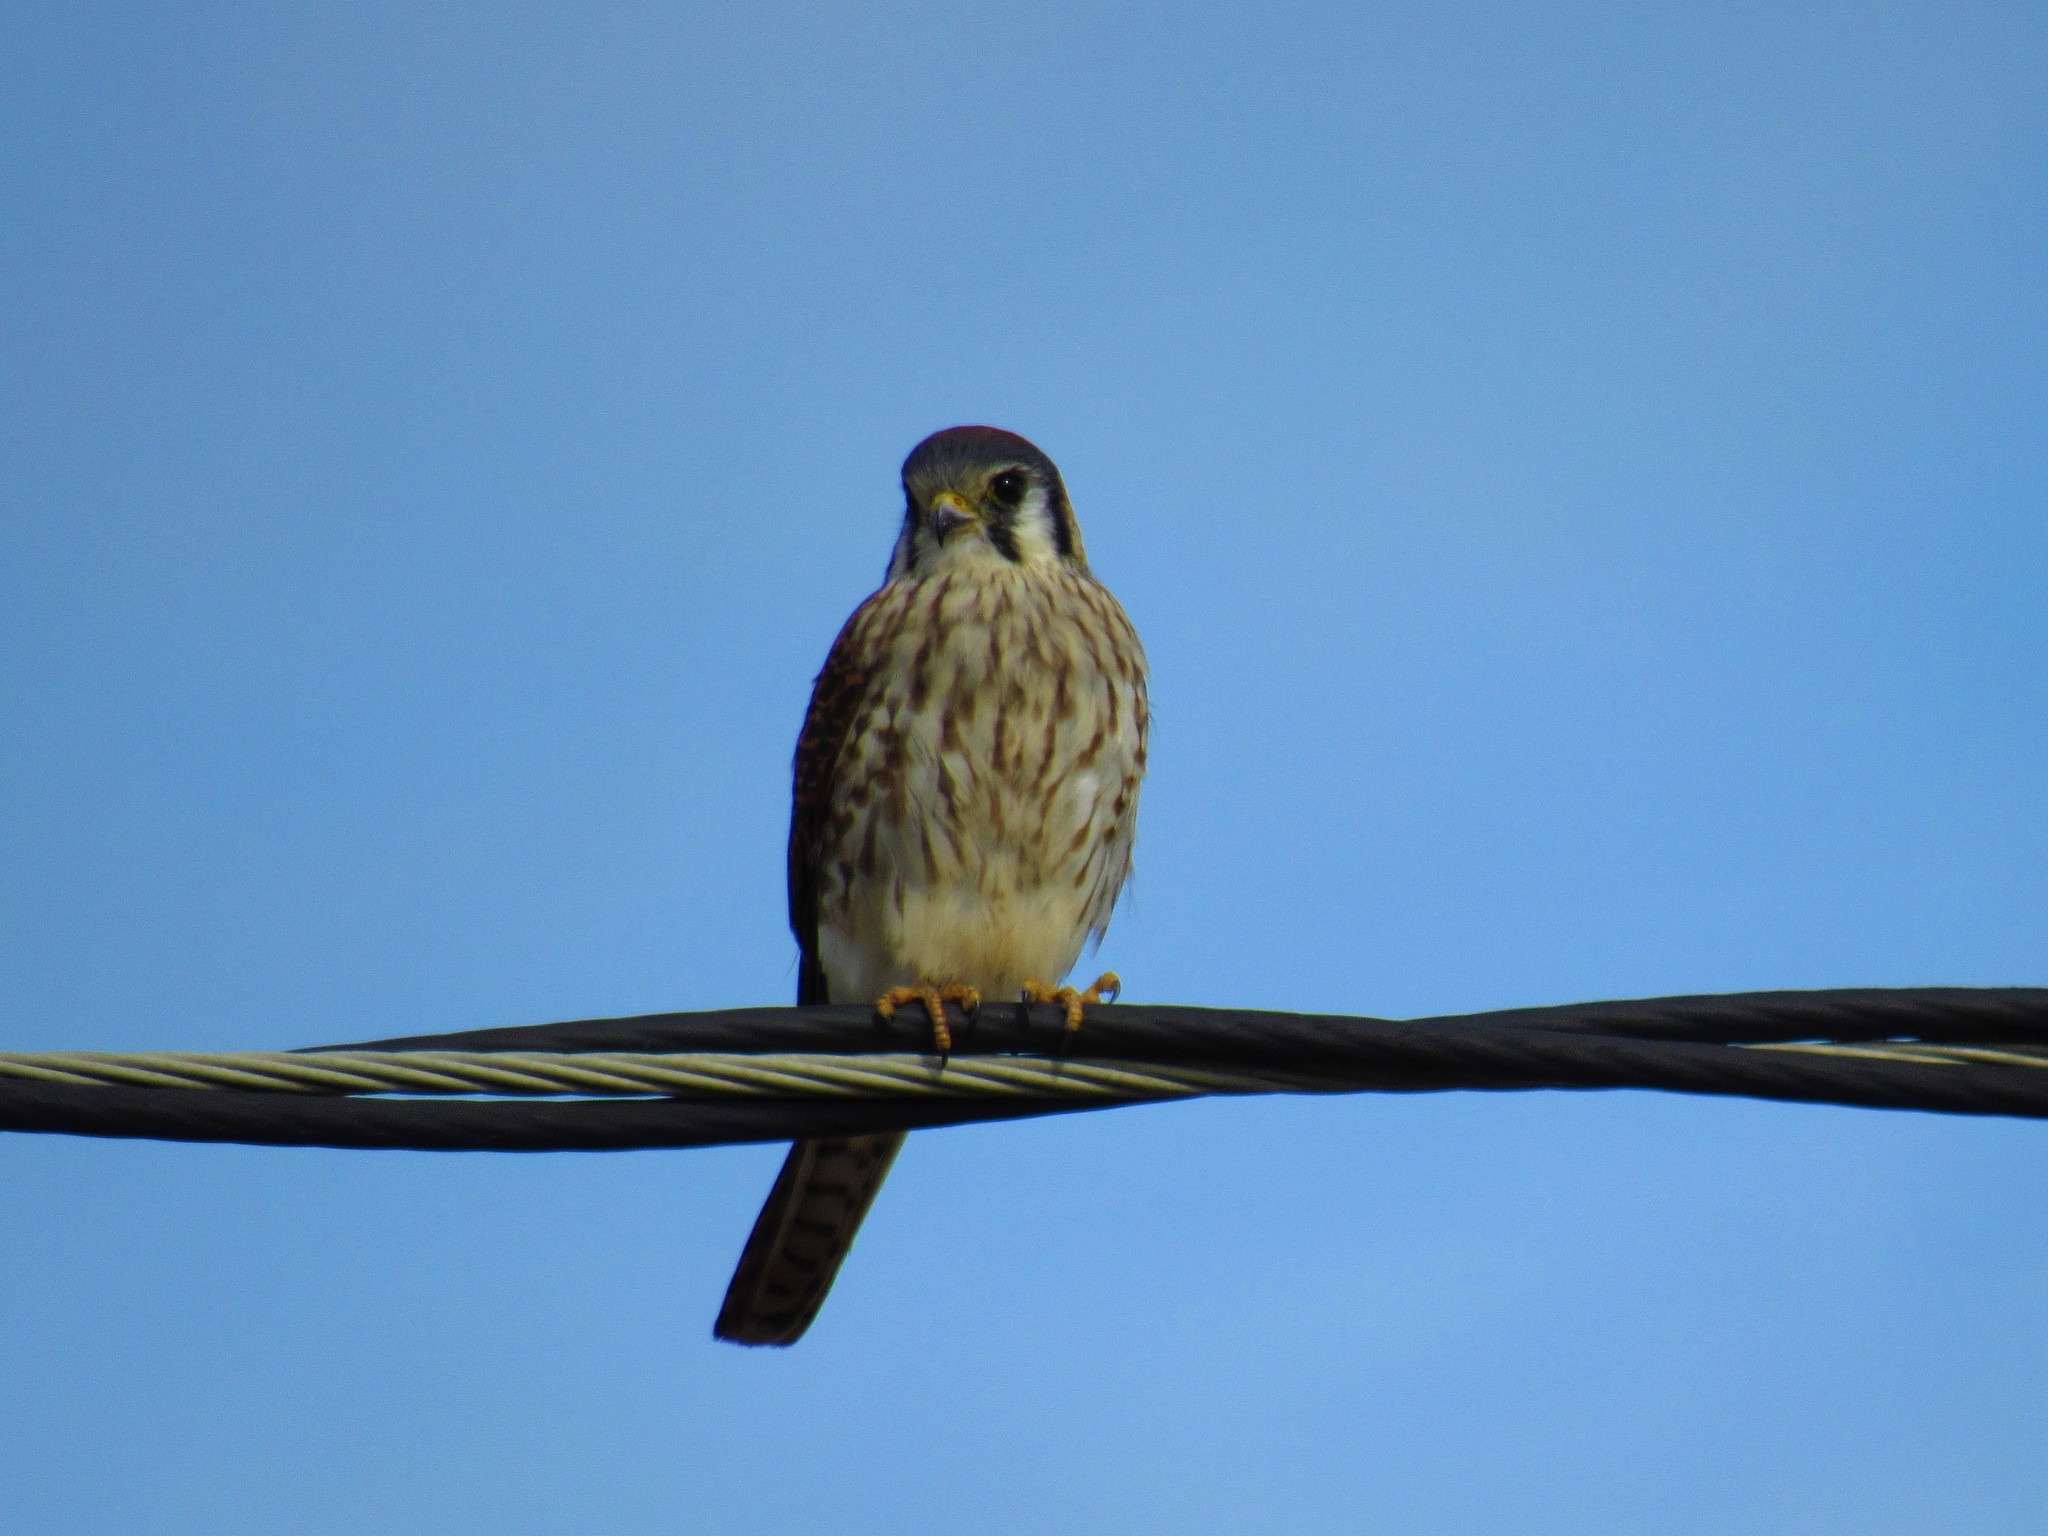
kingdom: Animalia
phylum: Chordata
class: Aves
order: Falconiformes
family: Falconidae
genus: Falco
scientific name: Falco sparverius
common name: American kestrel
